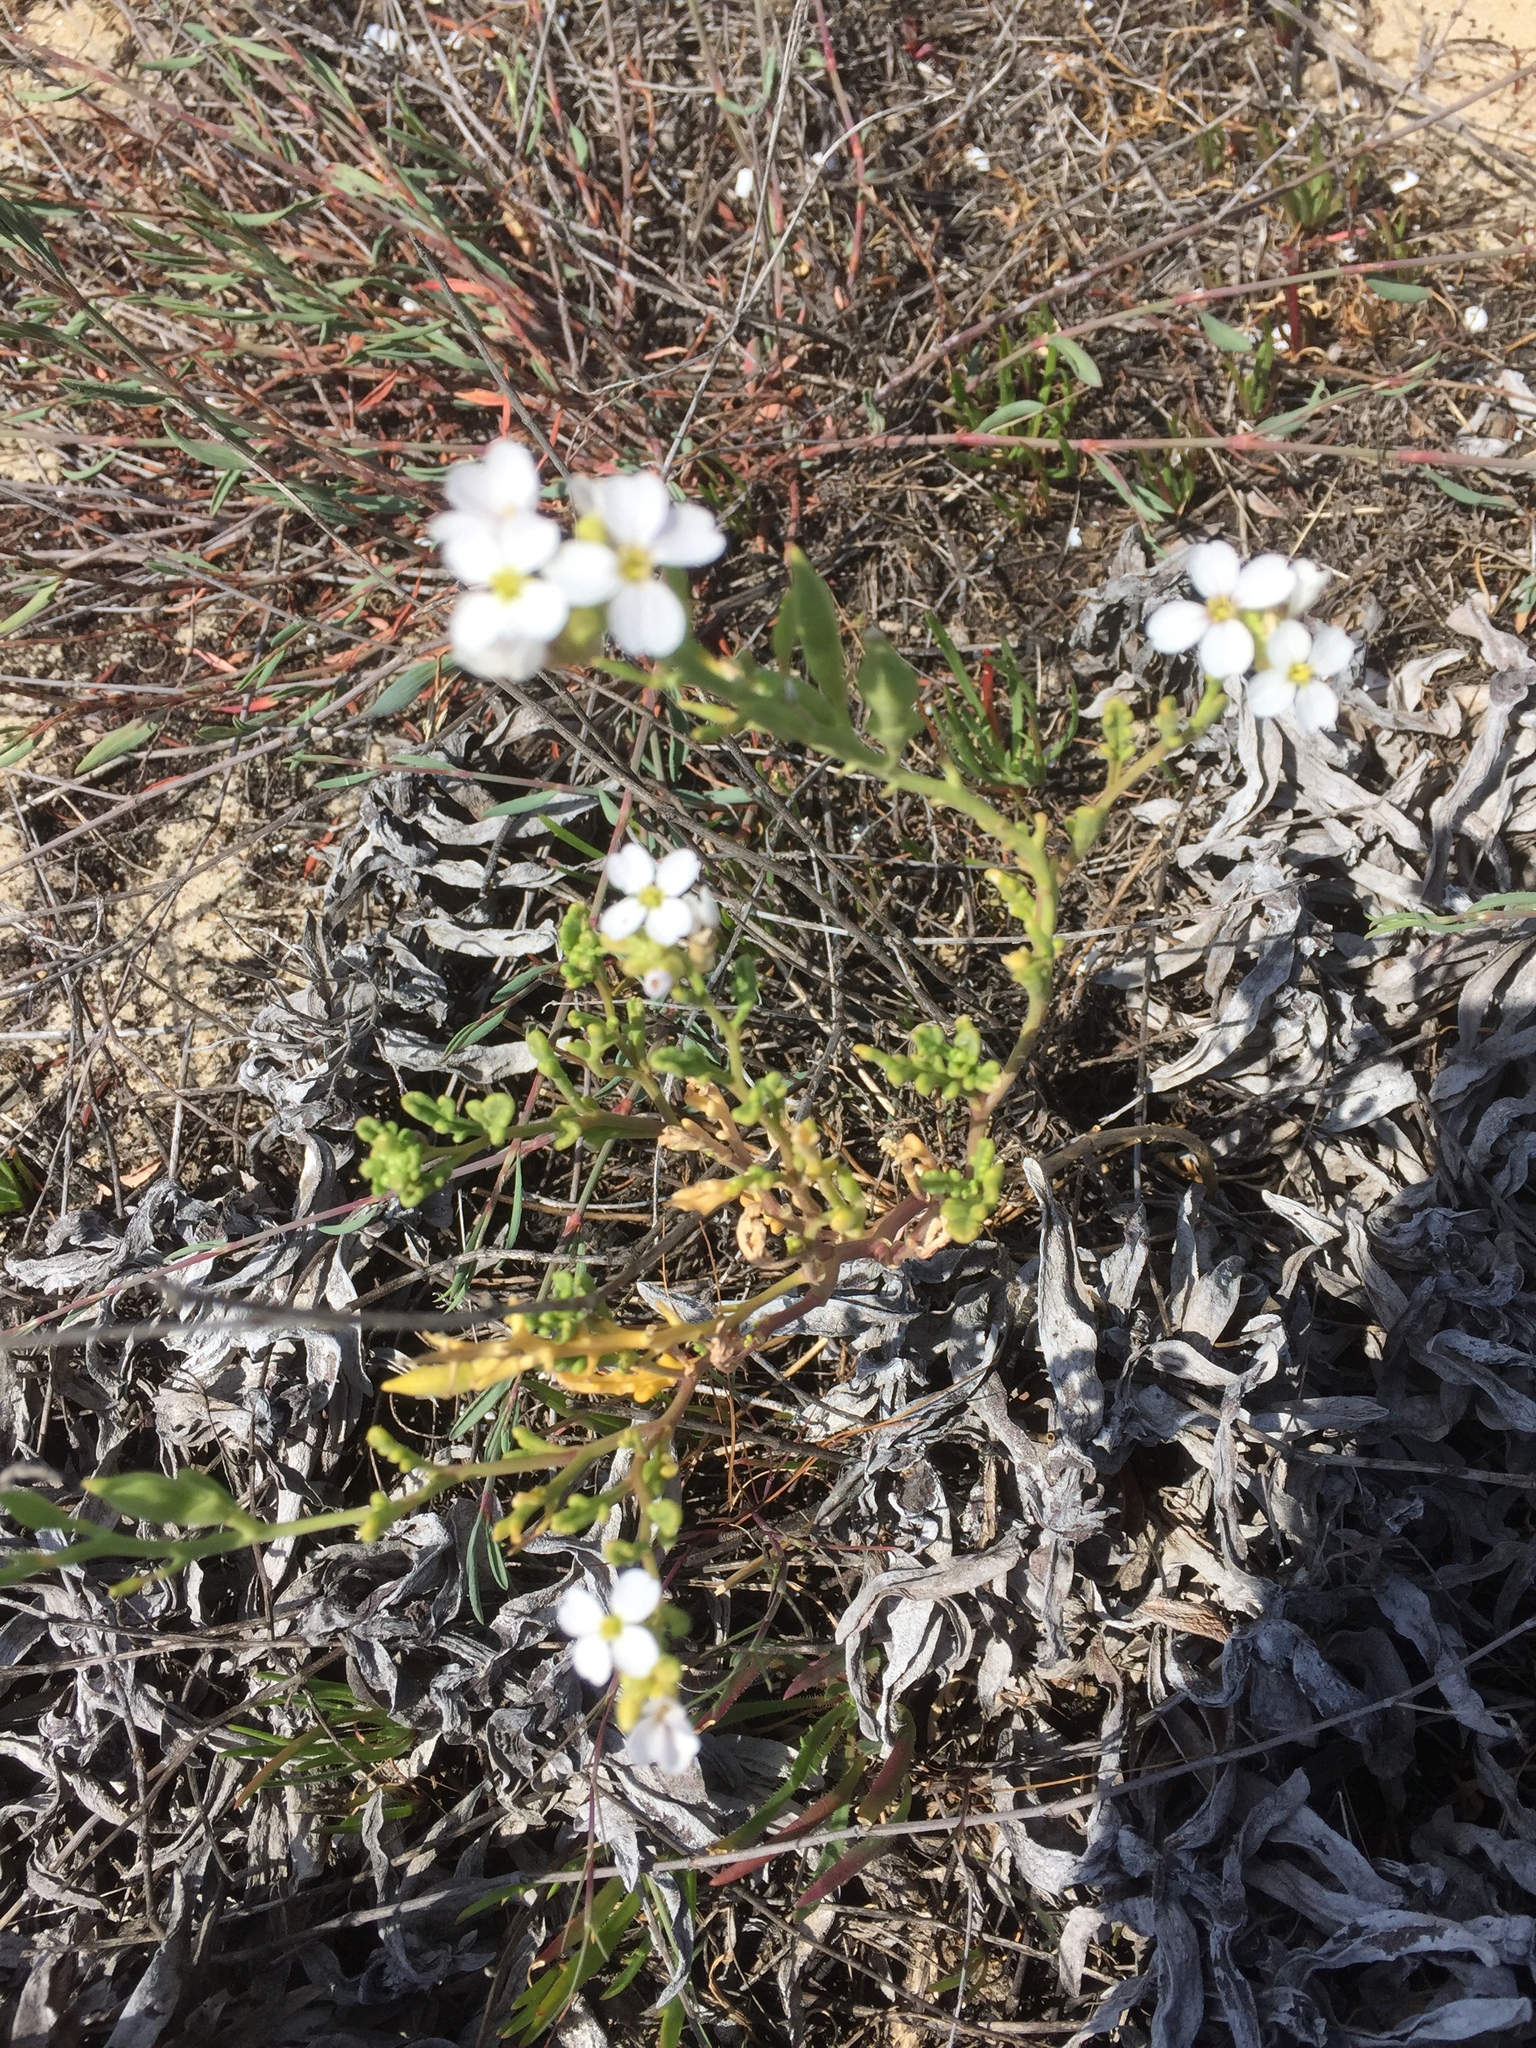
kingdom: Plantae
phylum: Tracheophyta
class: Magnoliopsida
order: Brassicales
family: Brassicaceae
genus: Cakile
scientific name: Cakile maritima
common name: Sea rocket
